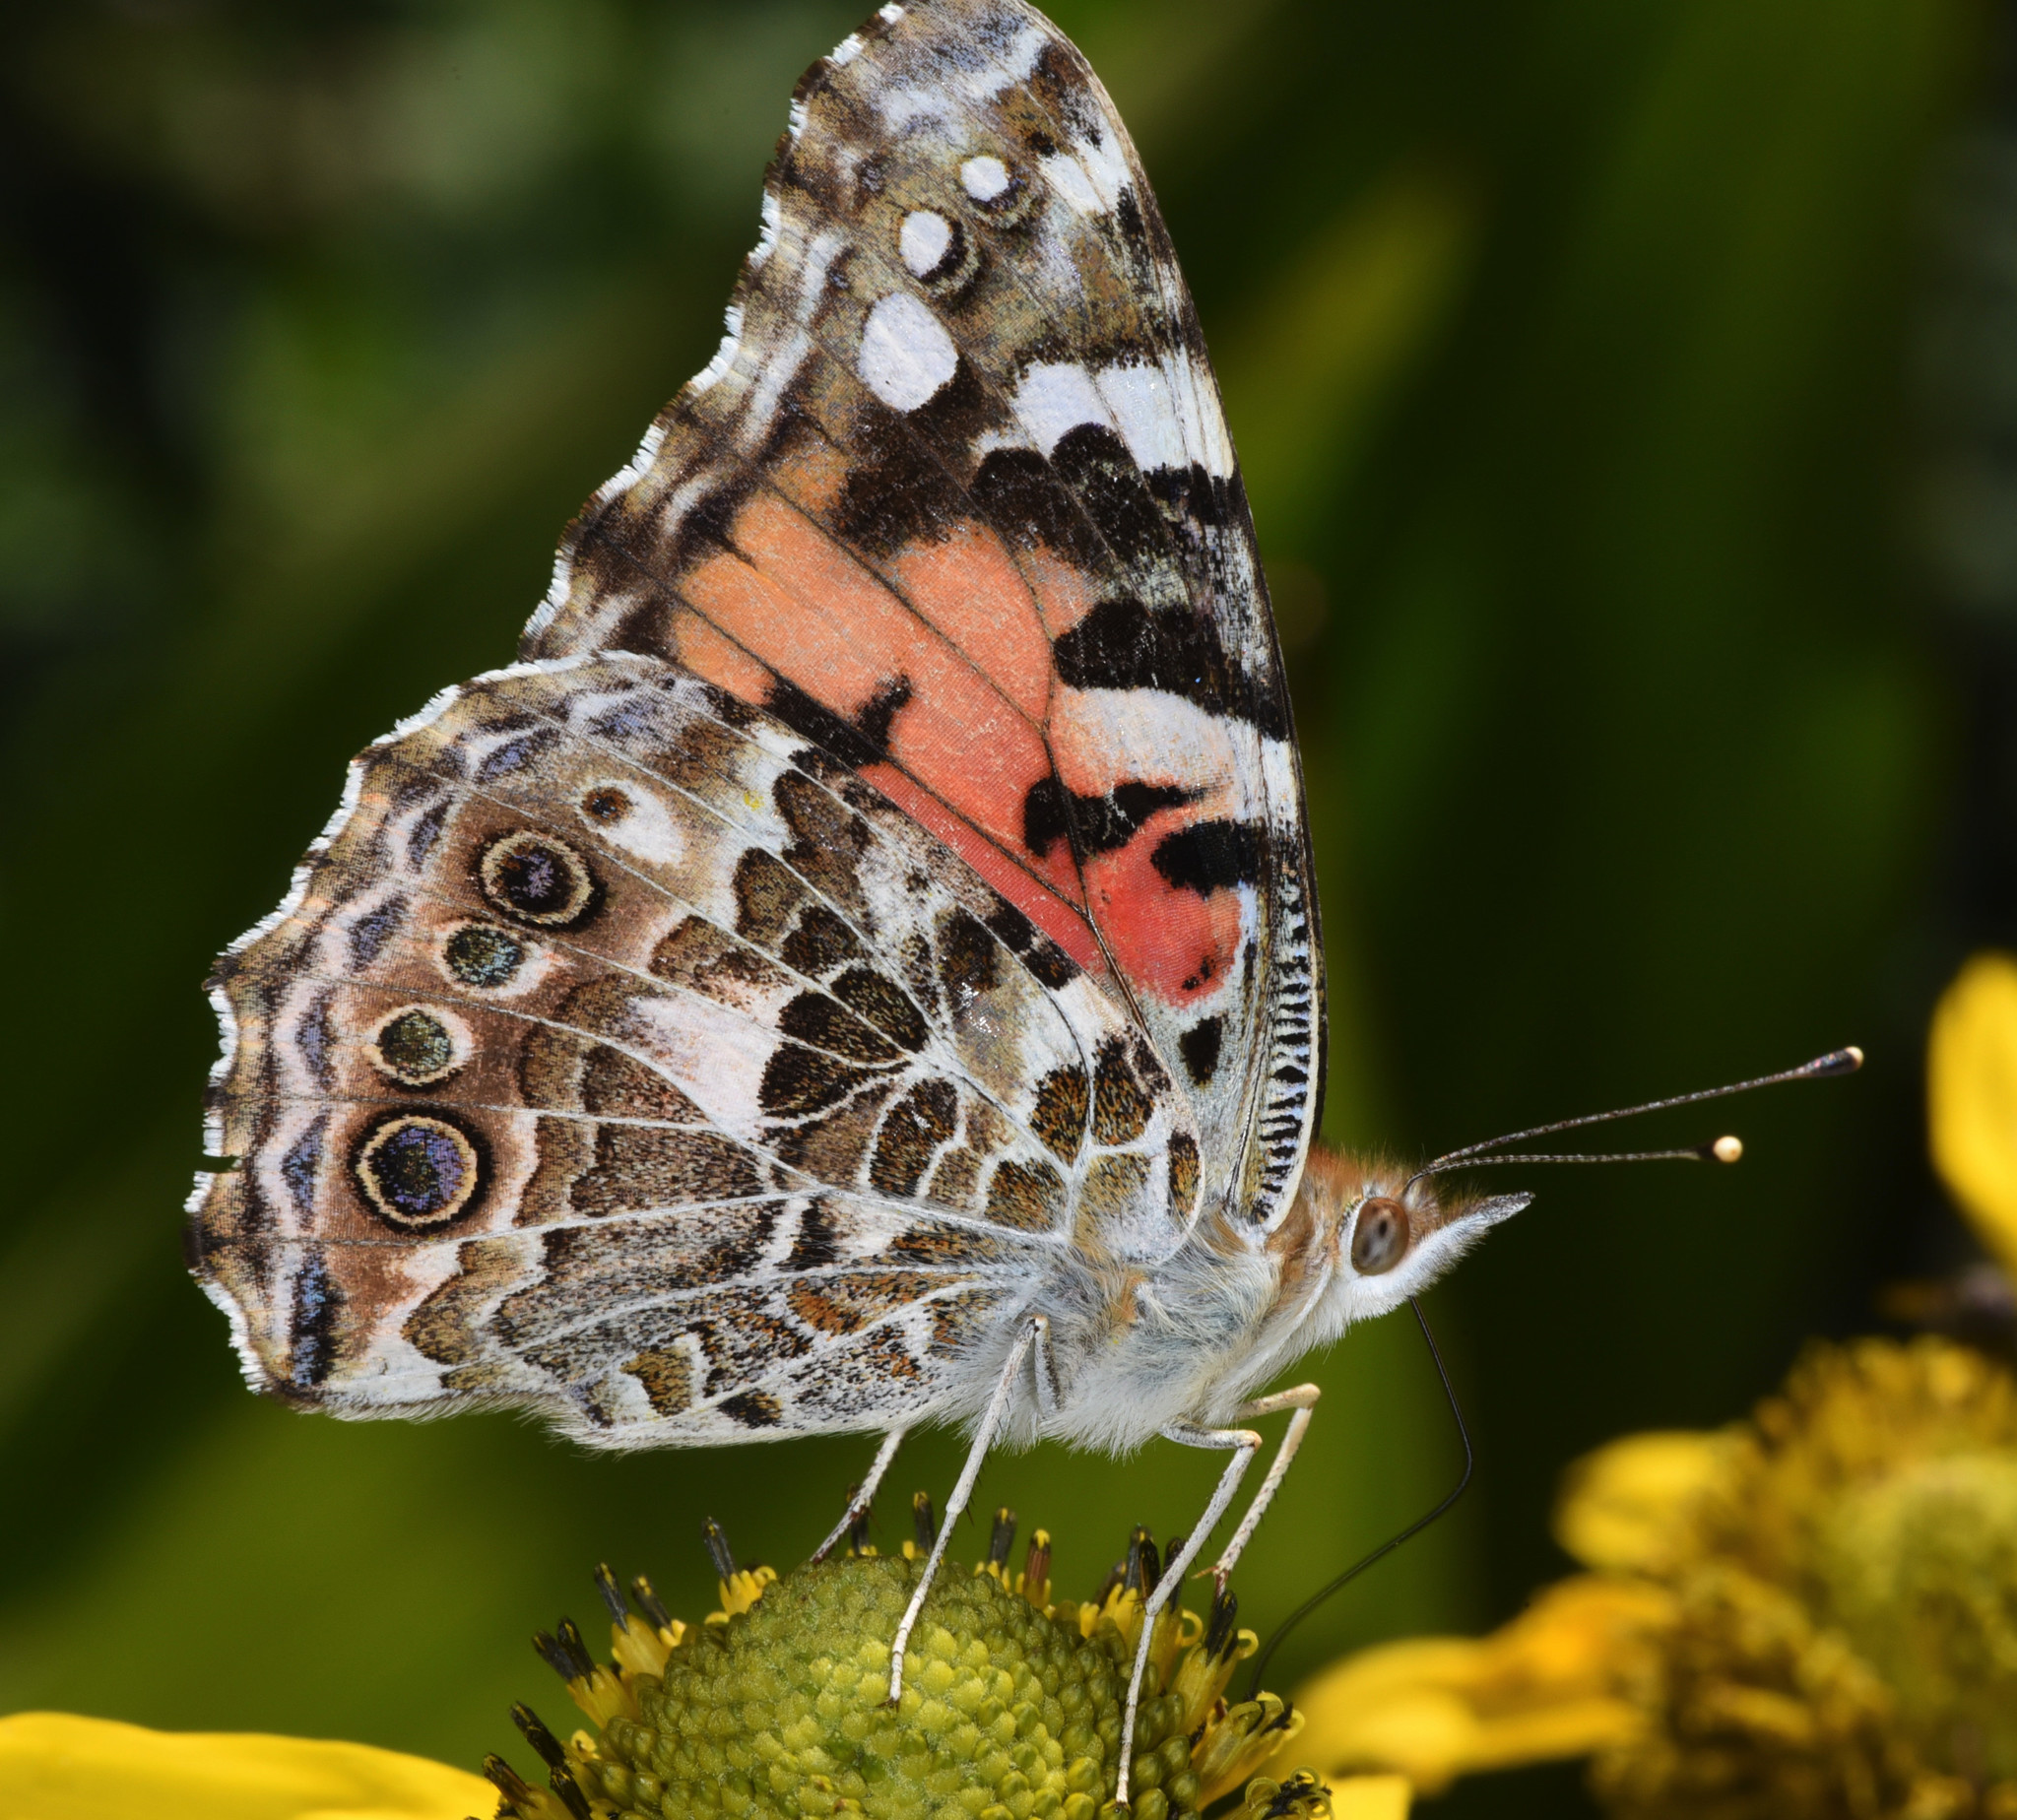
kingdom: Animalia
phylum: Arthropoda
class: Insecta
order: Lepidoptera
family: Nymphalidae
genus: Vanessa
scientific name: Vanessa cardui
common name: Painted lady
